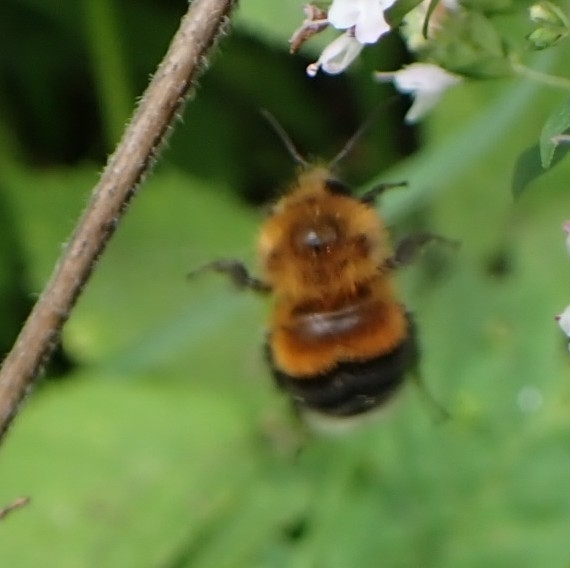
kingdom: Animalia
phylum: Arthropoda
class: Insecta
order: Hymenoptera
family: Apidae
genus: Bombus
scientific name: Bombus hypnorum
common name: New garden bumblebee
